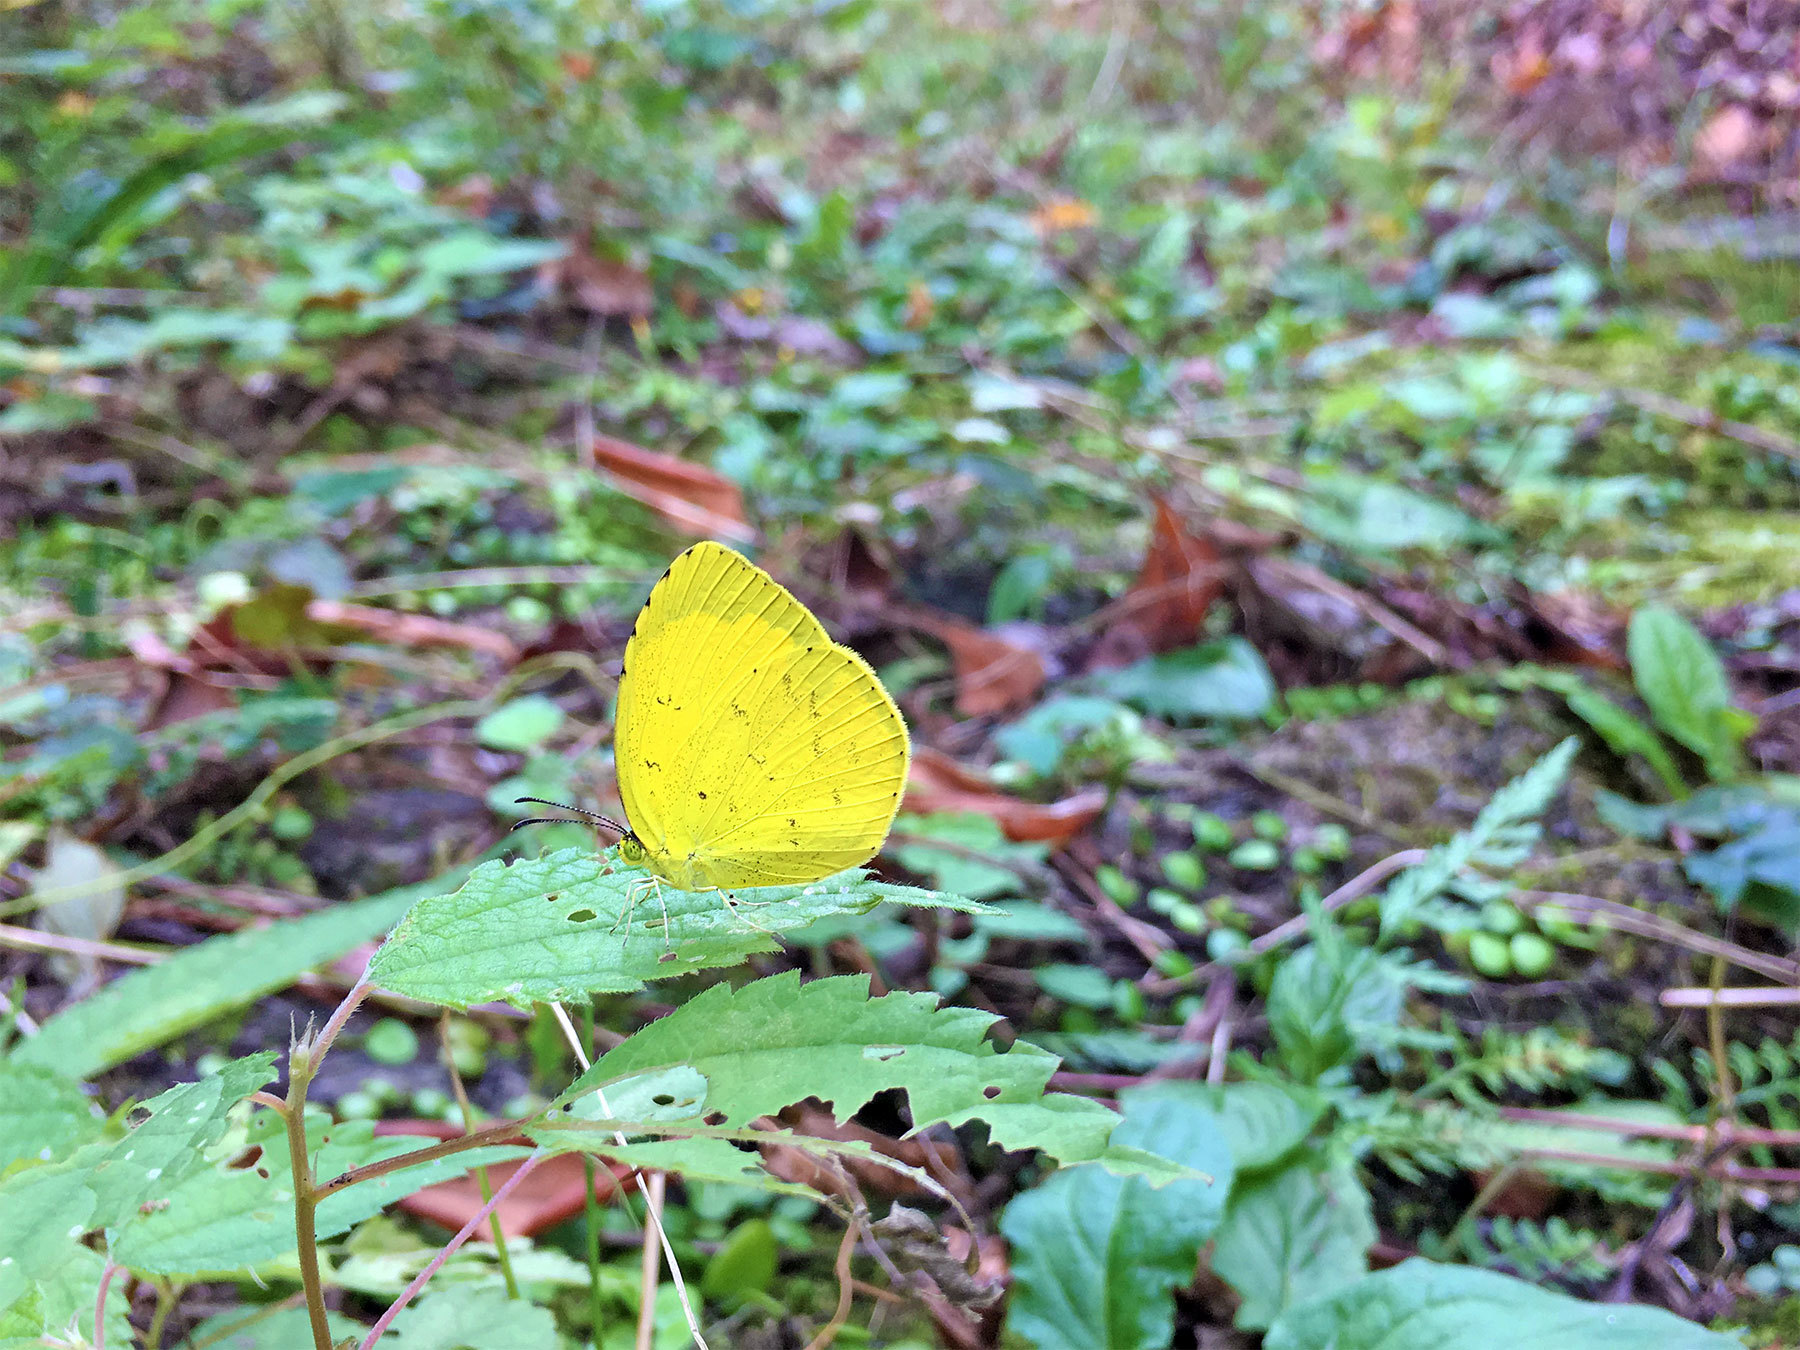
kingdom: Animalia
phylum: Arthropoda
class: Insecta
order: Lepidoptera
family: Pieridae
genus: Eurema
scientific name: Eurema mandarina
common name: Japanese common grass yellow
